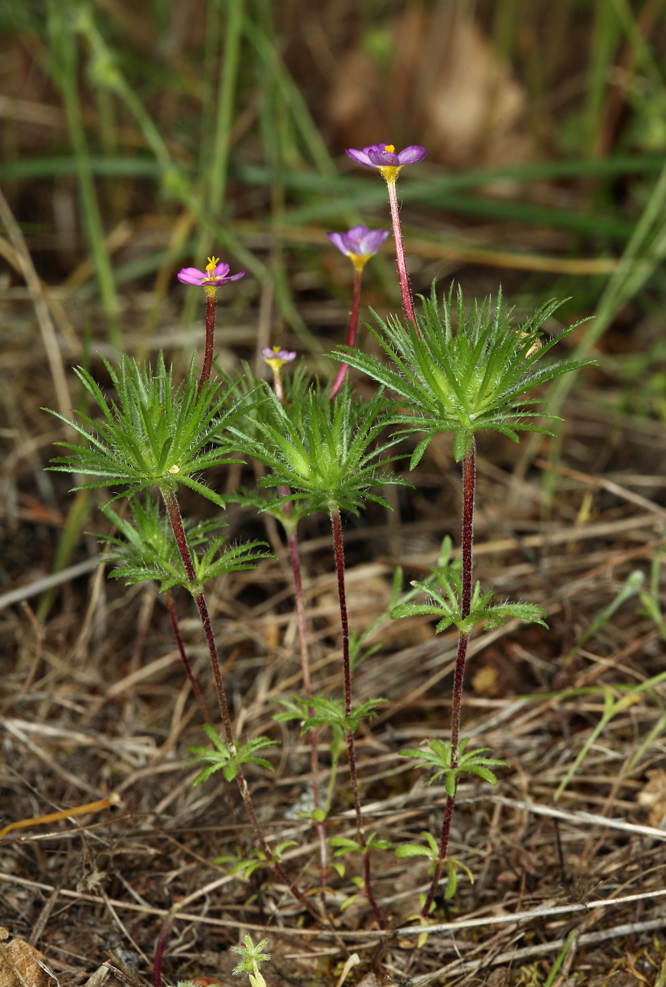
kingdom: Plantae
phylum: Tracheophyta
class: Magnoliopsida
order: Ericales
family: Polemoniaceae
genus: Leptosiphon
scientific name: Leptosiphon bicolor
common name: True babystars
